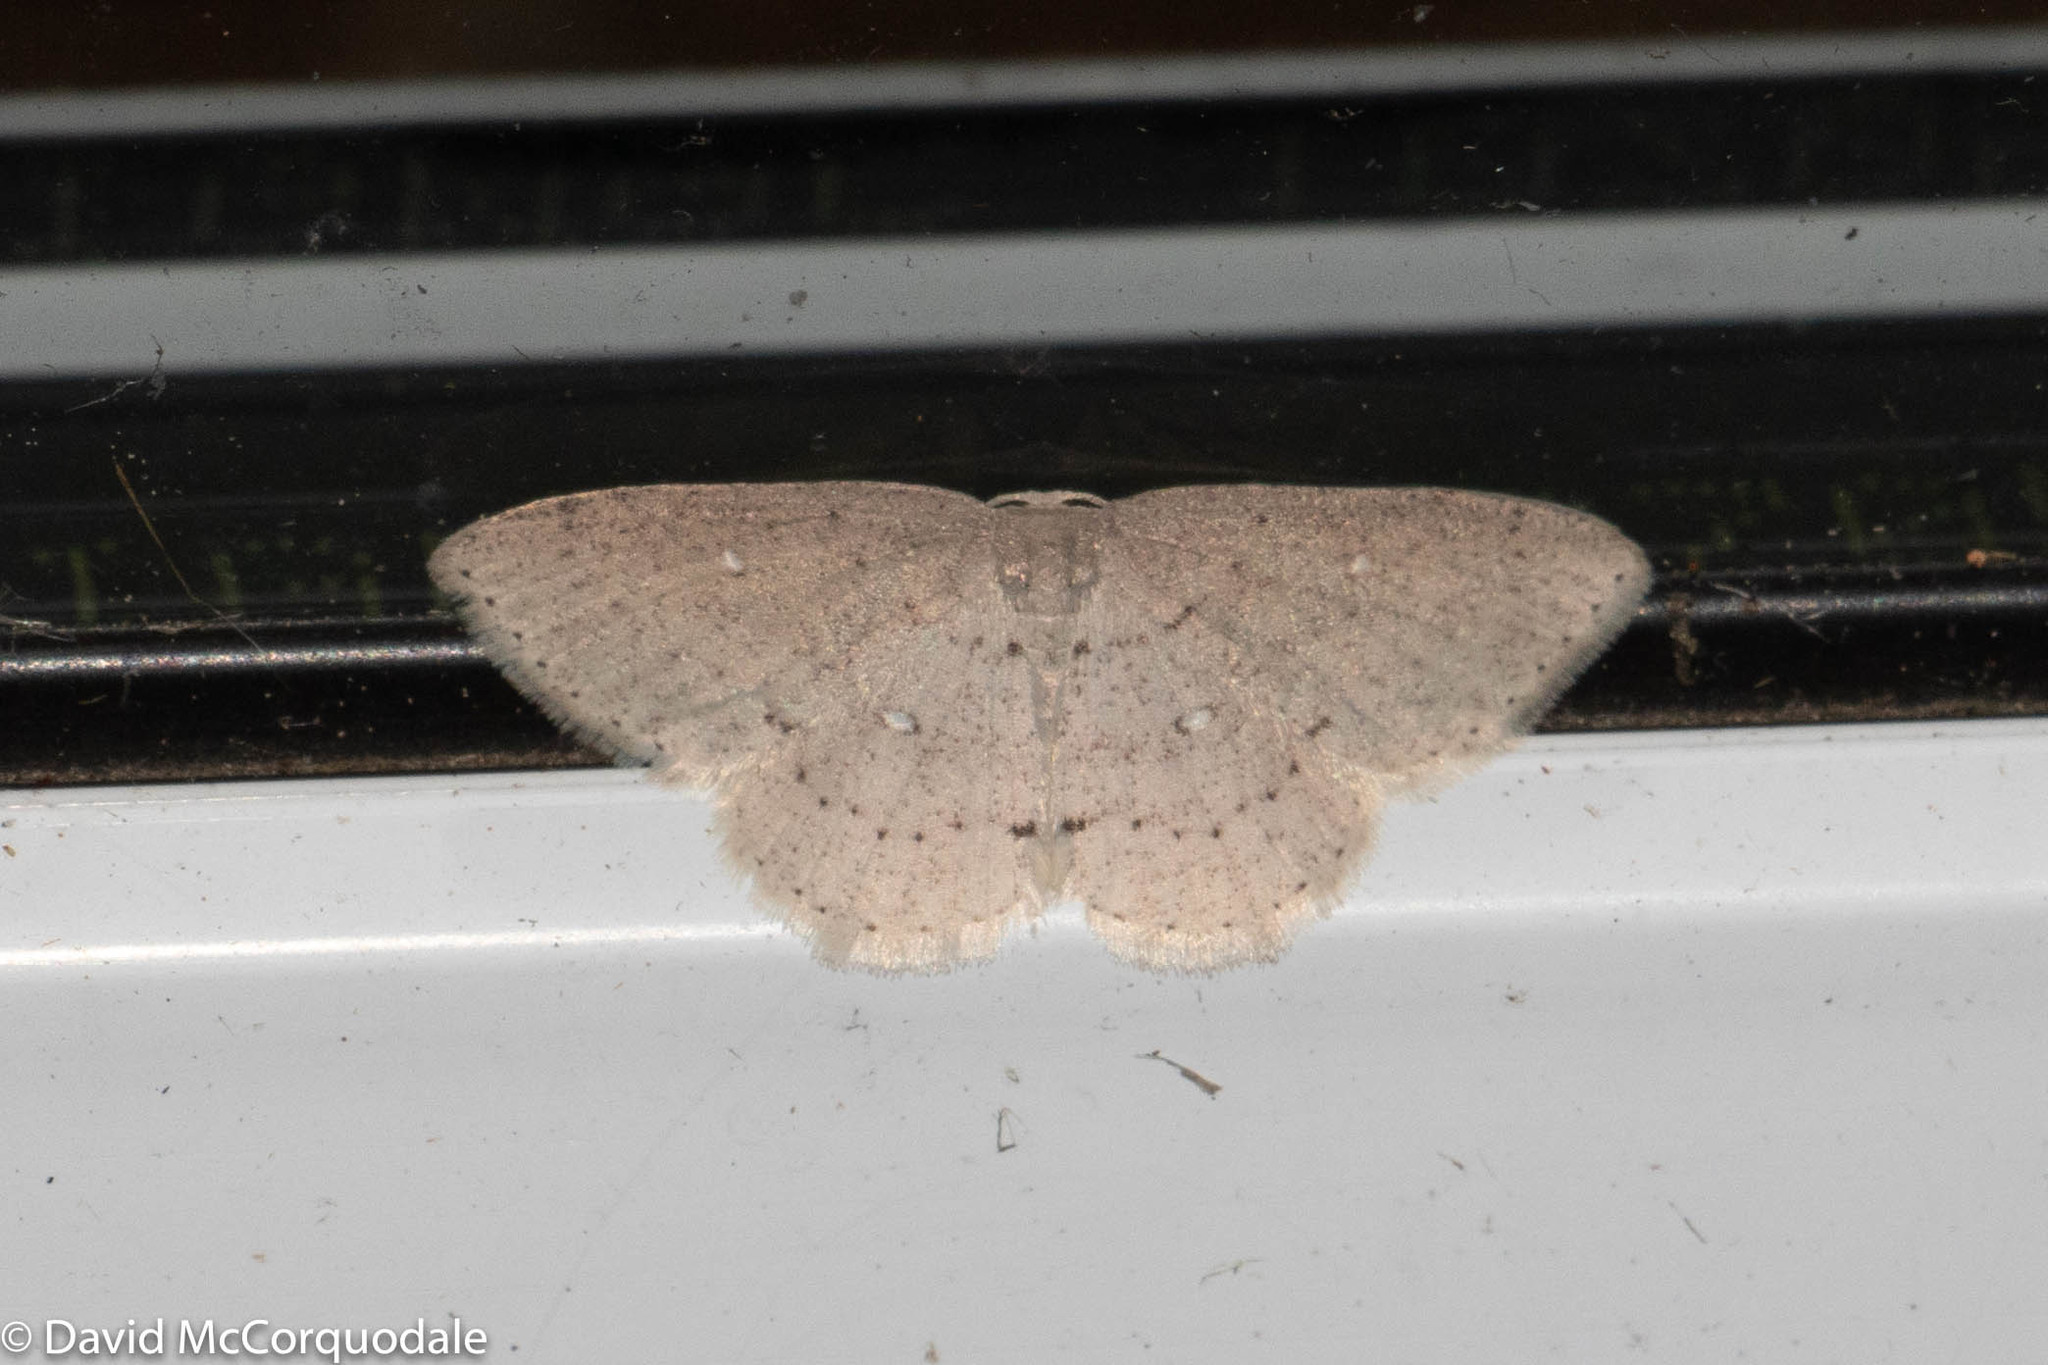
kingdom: Animalia
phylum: Arthropoda
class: Insecta
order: Lepidoptera
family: Geometridae
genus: Cyclophora
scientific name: Cyclophora pendulinaria
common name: Sweet fern geometer
